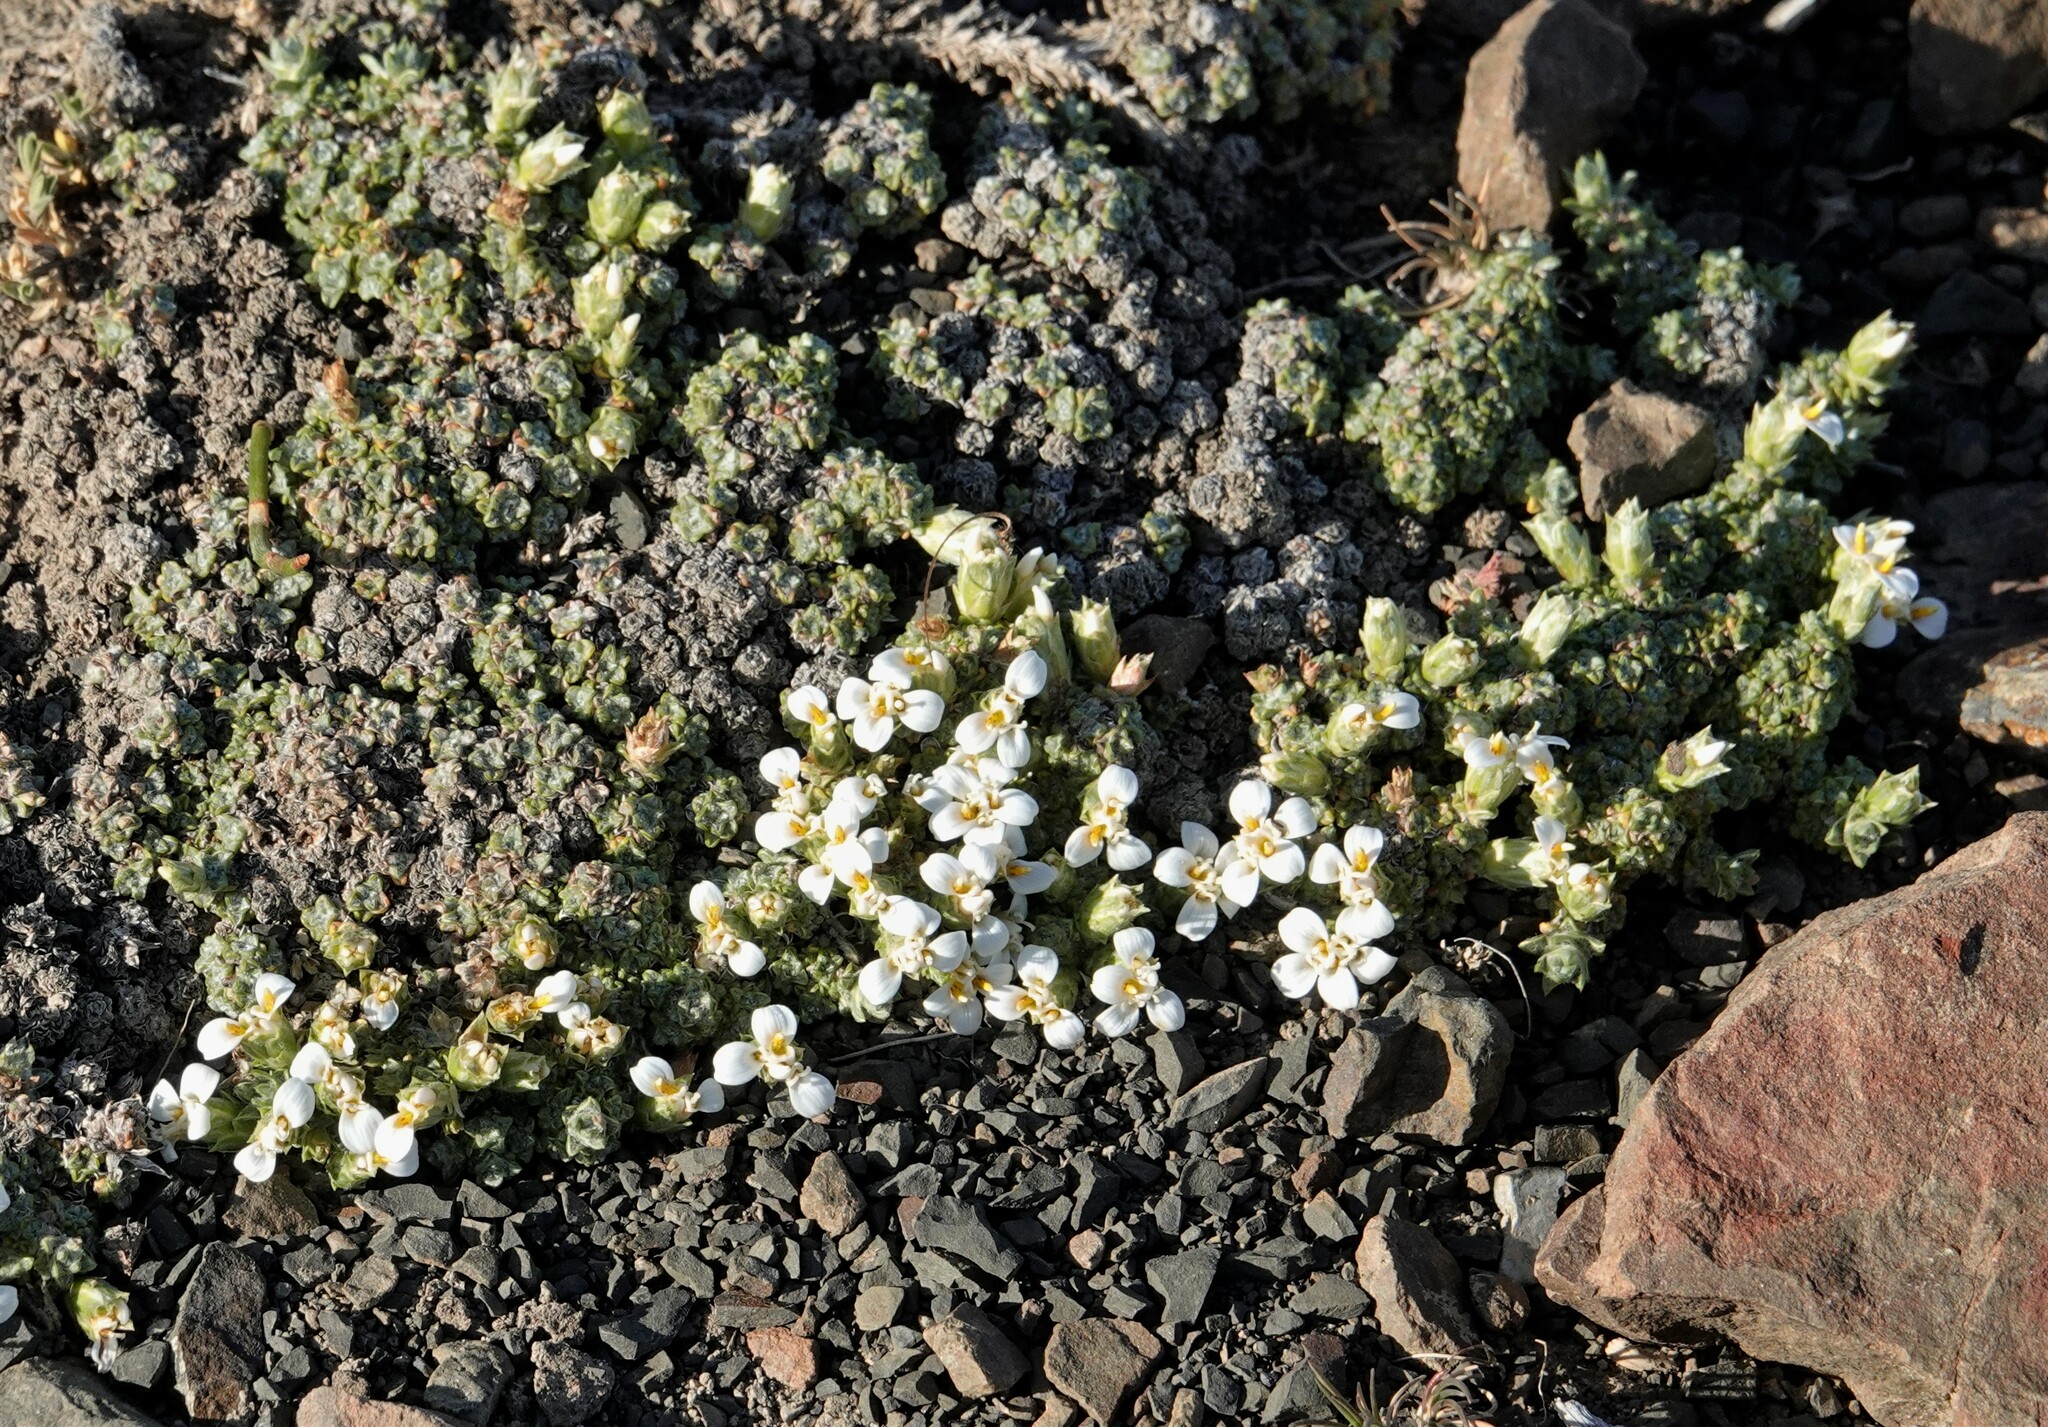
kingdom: Plantae
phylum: Tracheophyta
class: Magnoliopsida
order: Asterales
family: Asteraceae
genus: Nassauvia
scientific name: Nassauvia glomerulosa
